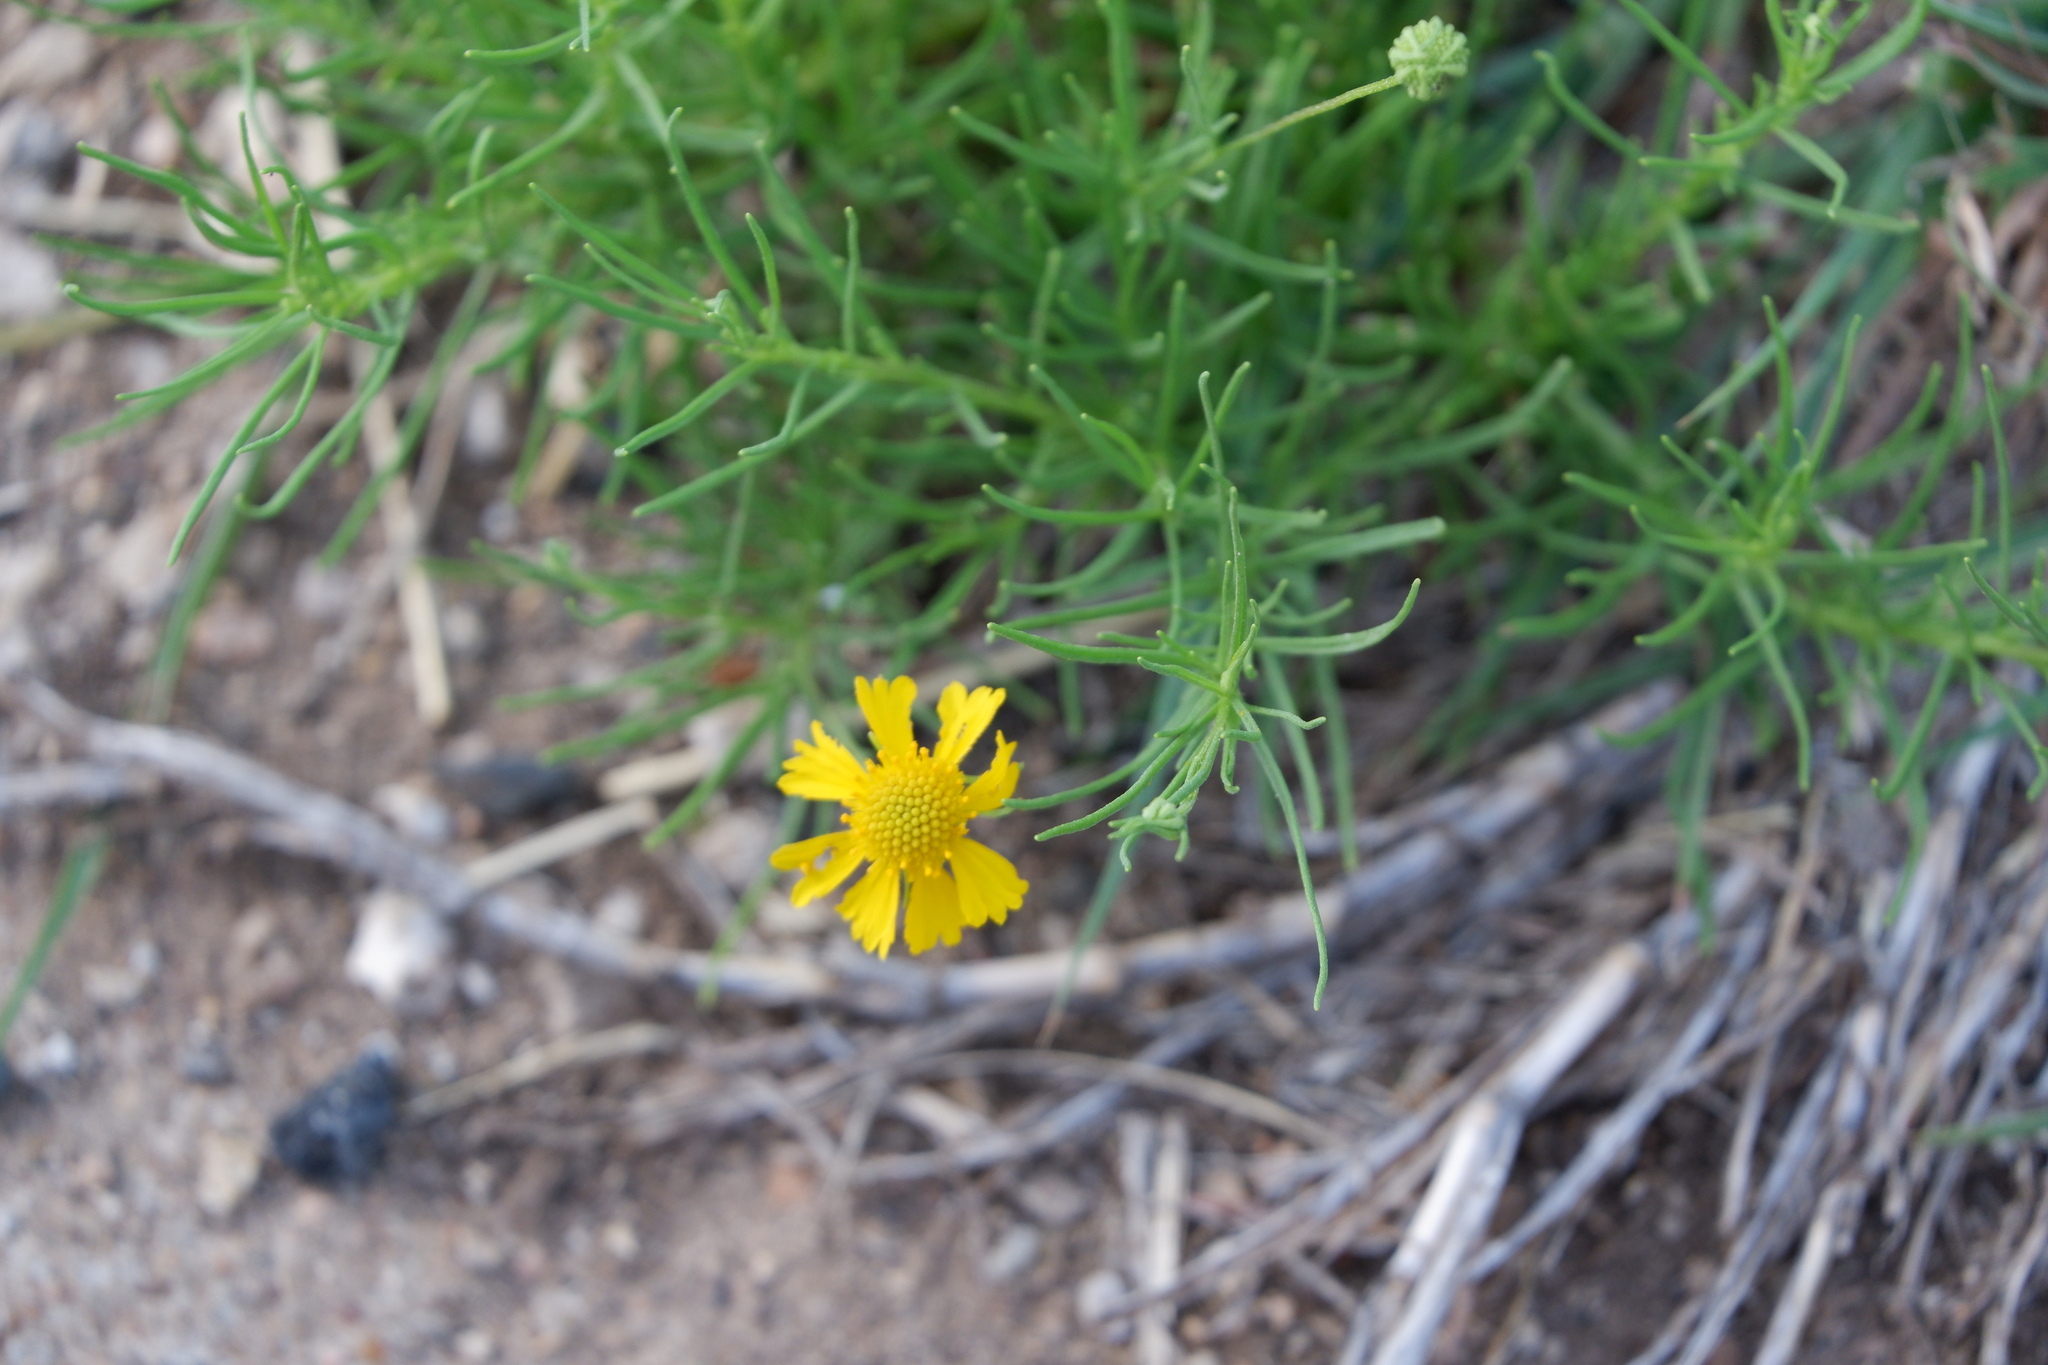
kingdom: Plantae
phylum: Tracheophyta
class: Magnoliopsida
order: Asterales
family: Asteraceae
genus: Helenium
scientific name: Helenium amarum
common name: Bitter sneezeweed
